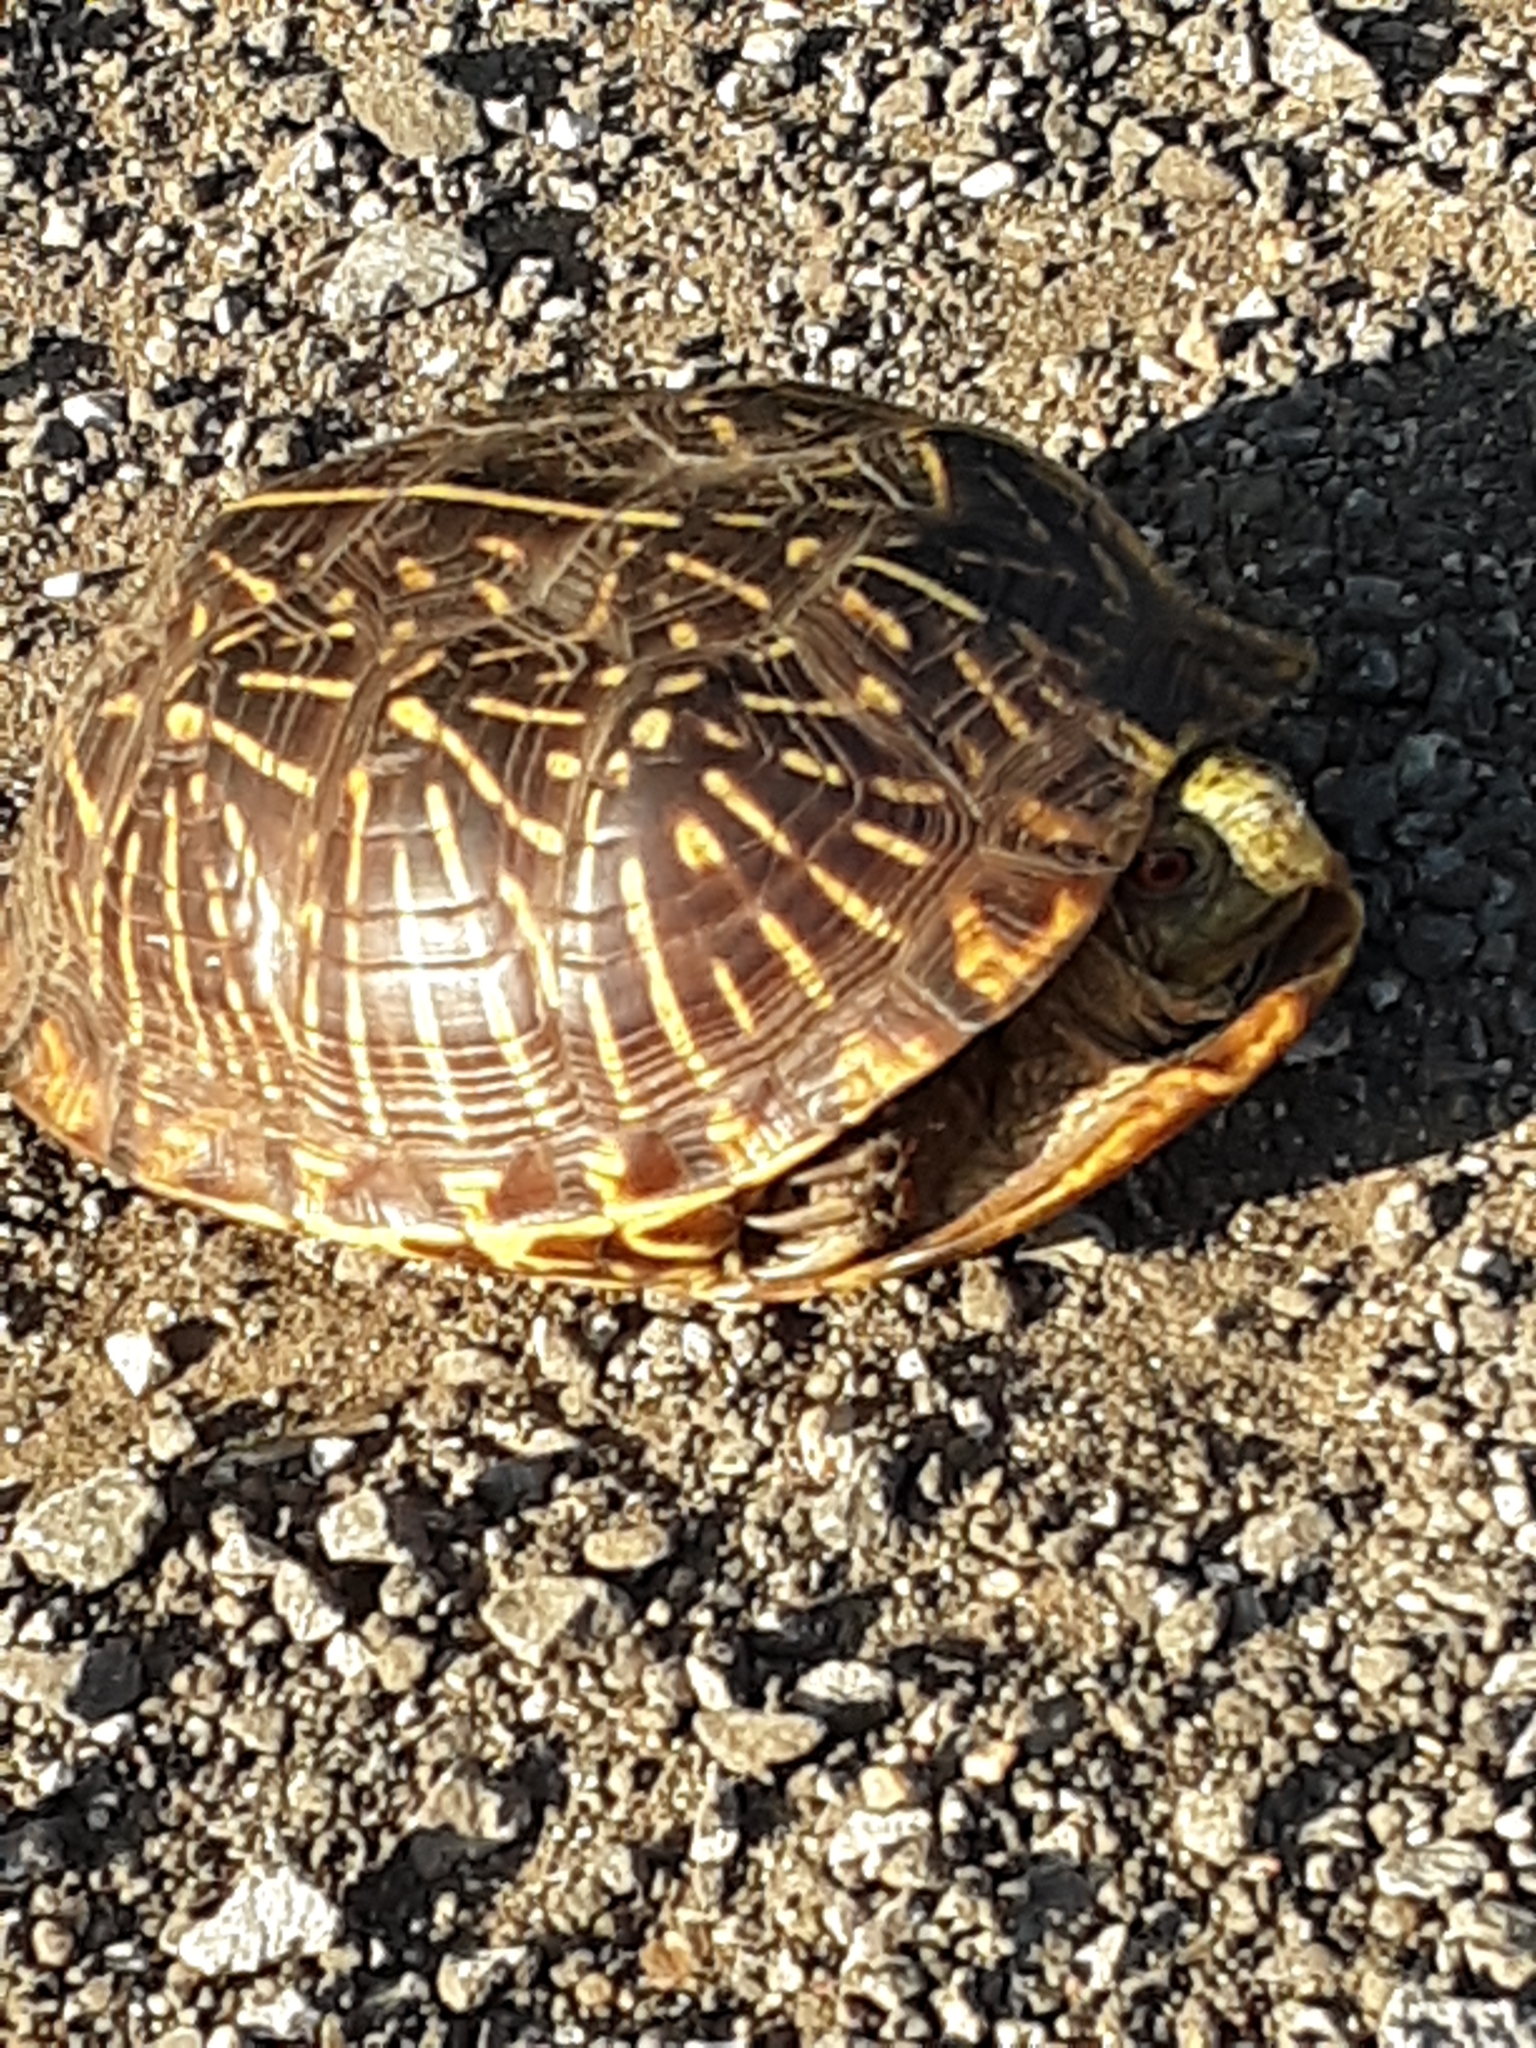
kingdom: Animalia
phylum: Chordata
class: Testudines
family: Emydidae
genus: Terrapene
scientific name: Terrapene ornata
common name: Western box turtle
